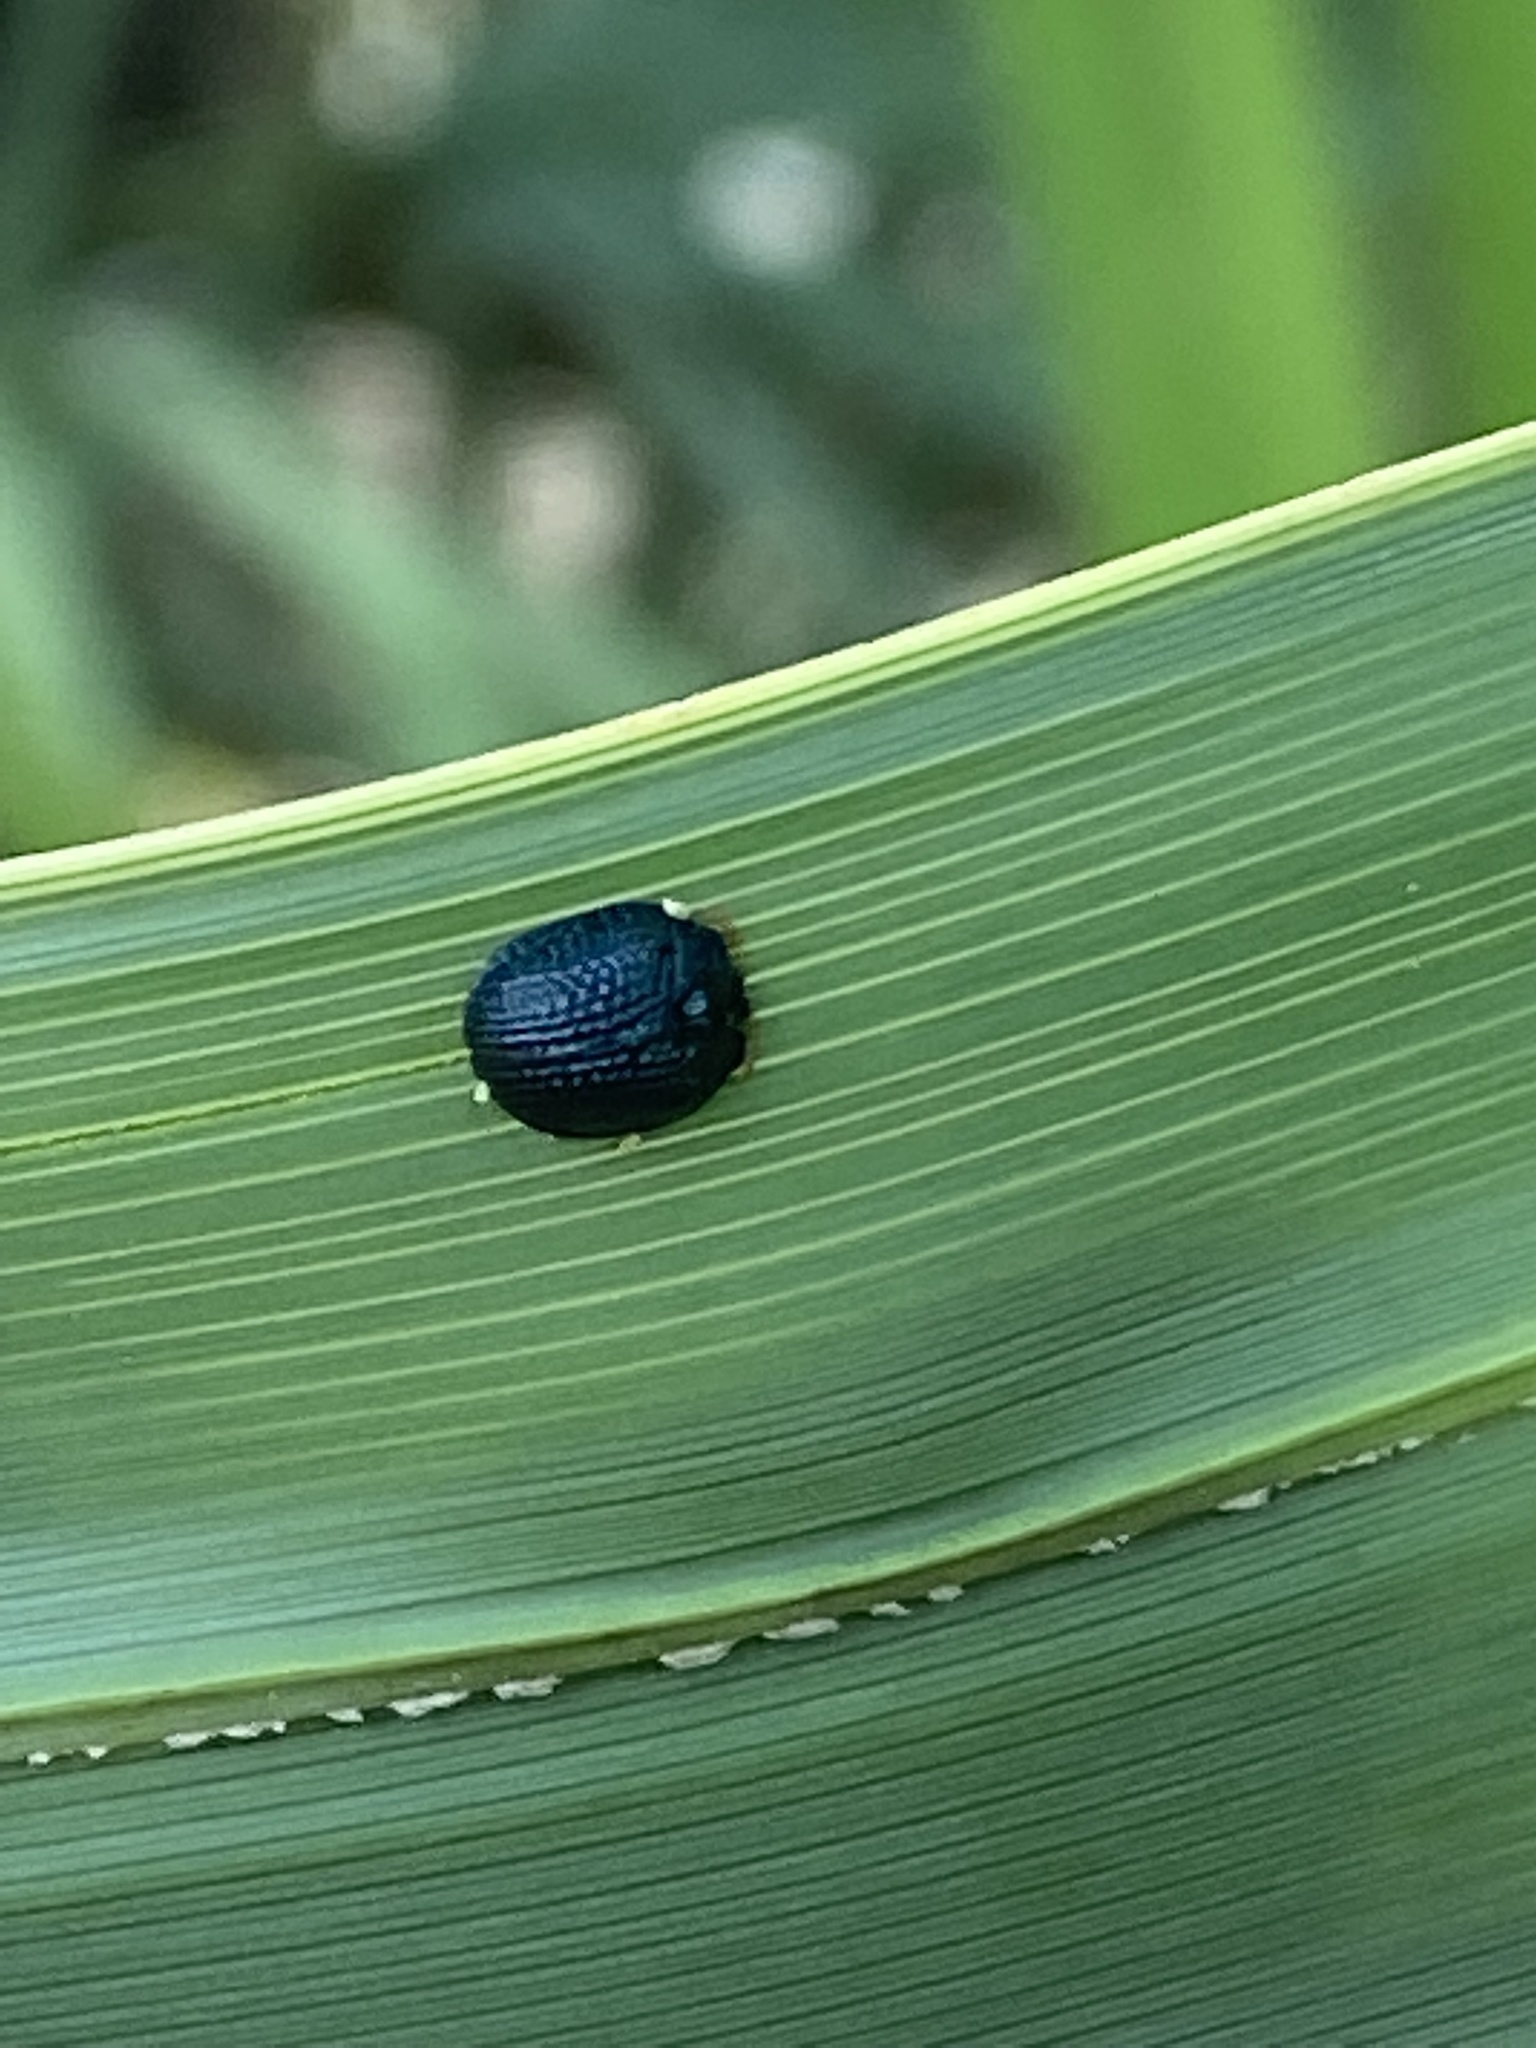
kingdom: Animalia
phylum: Arthropoda
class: Insecta
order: Coleoptera
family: Chrysomelidae
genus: Hemisphaerota
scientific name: Hemisphaerota cyanea
